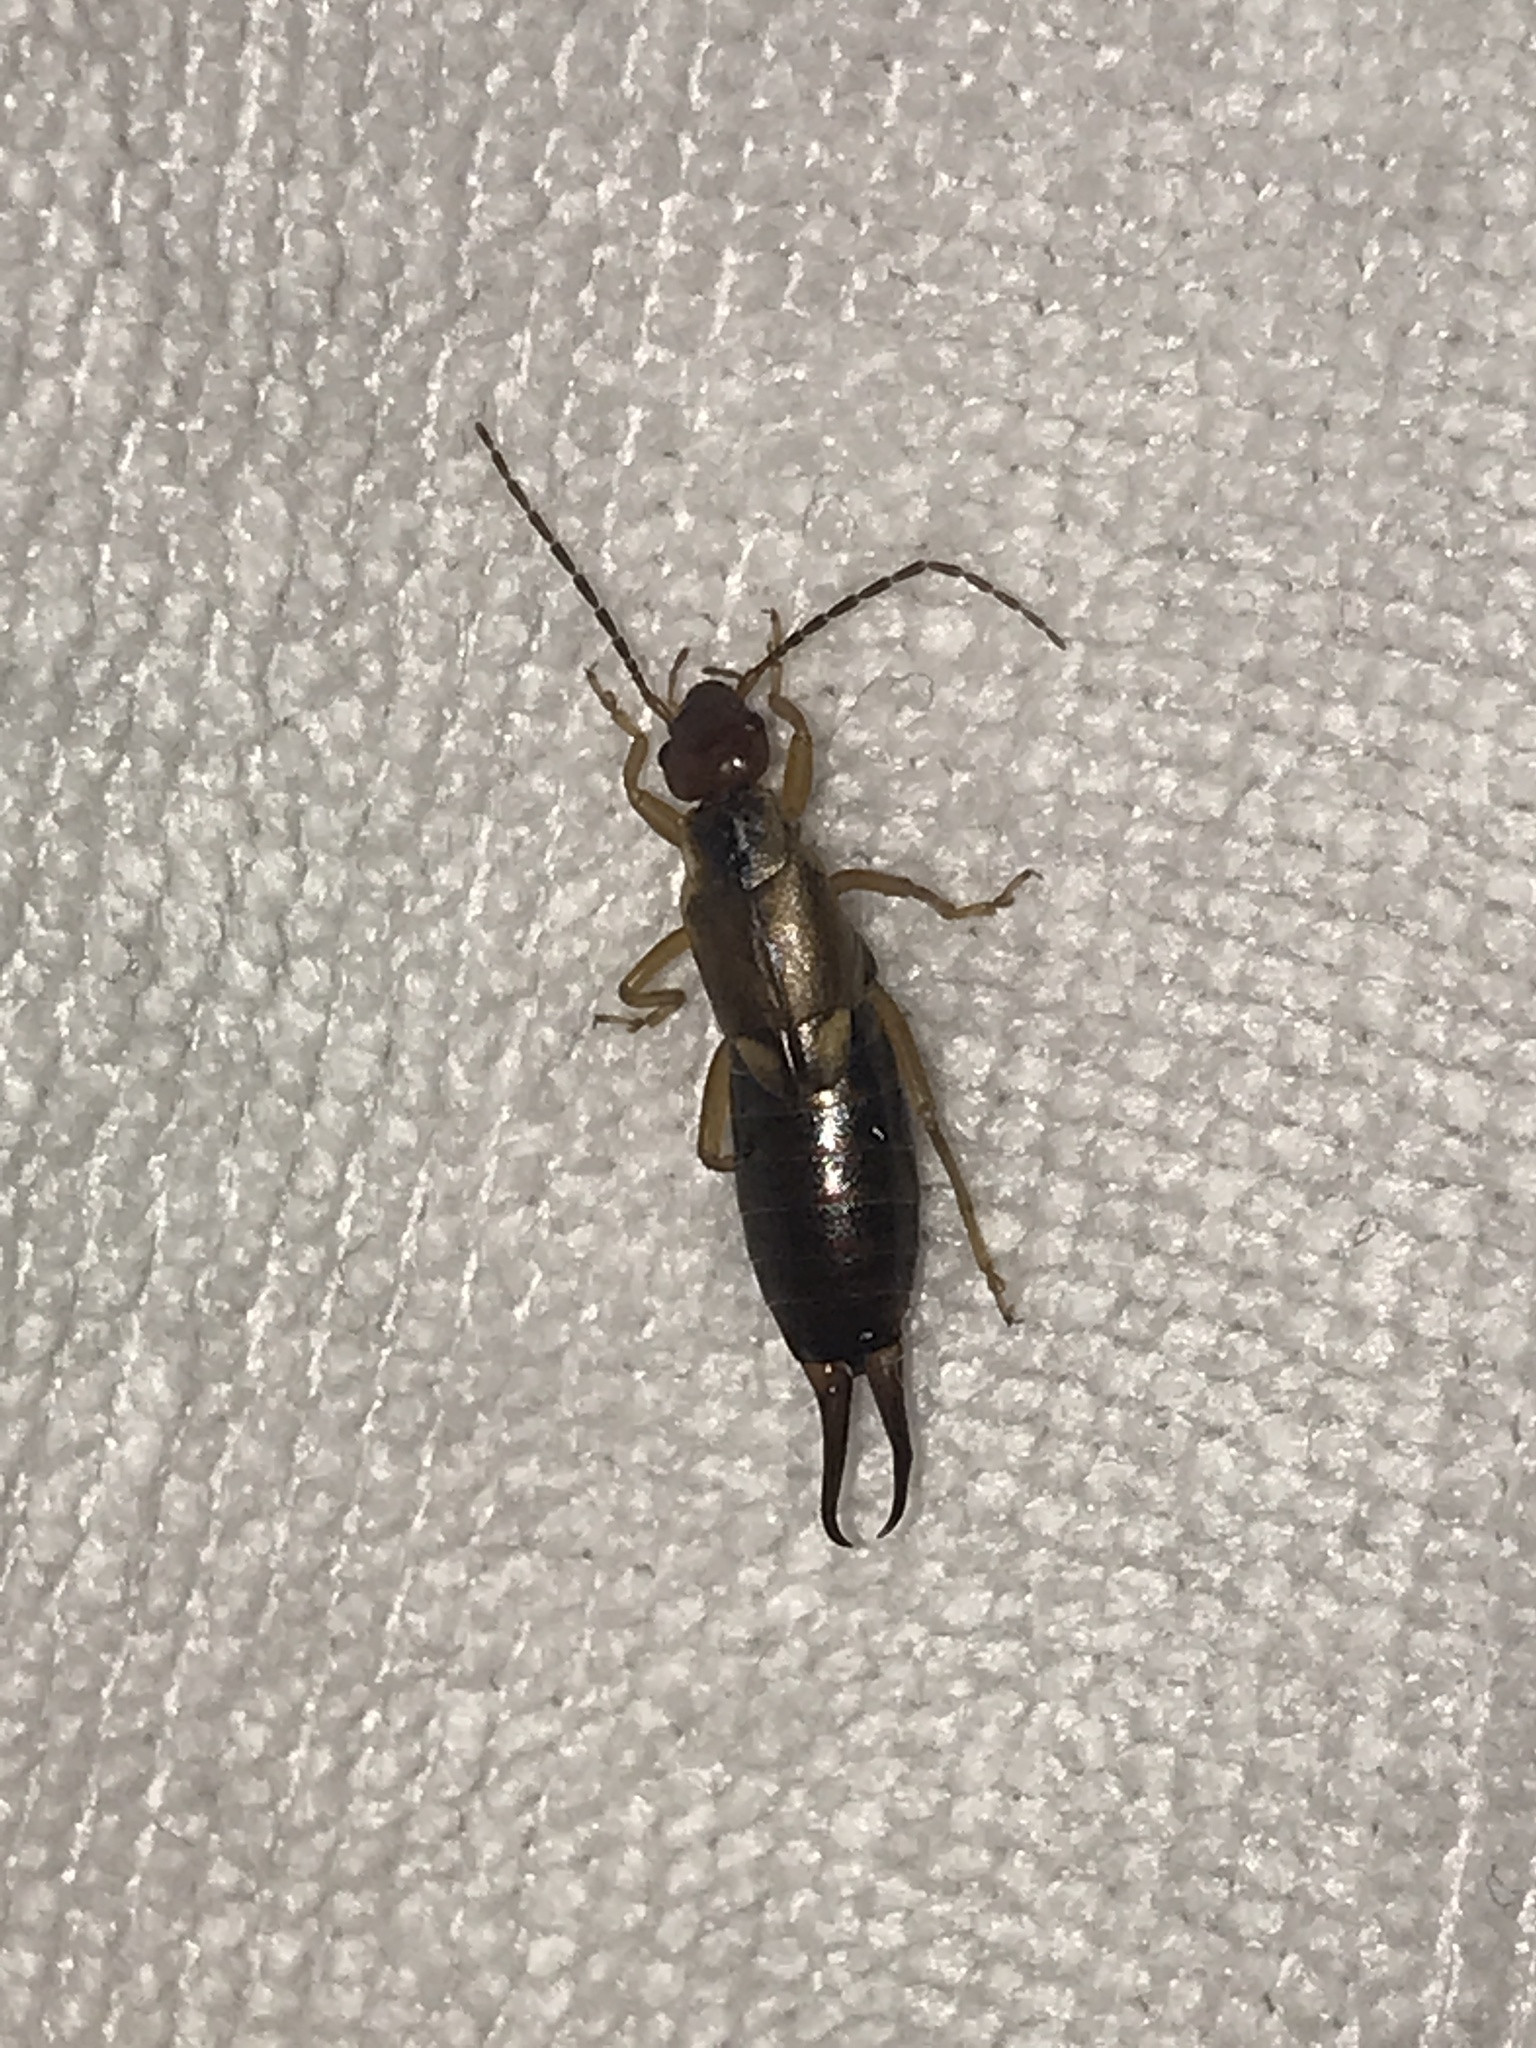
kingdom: Animalia
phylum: Arthropoda
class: Insecta
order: Dermaptera
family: Forficulidae
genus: Forficula
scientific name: Forficula
